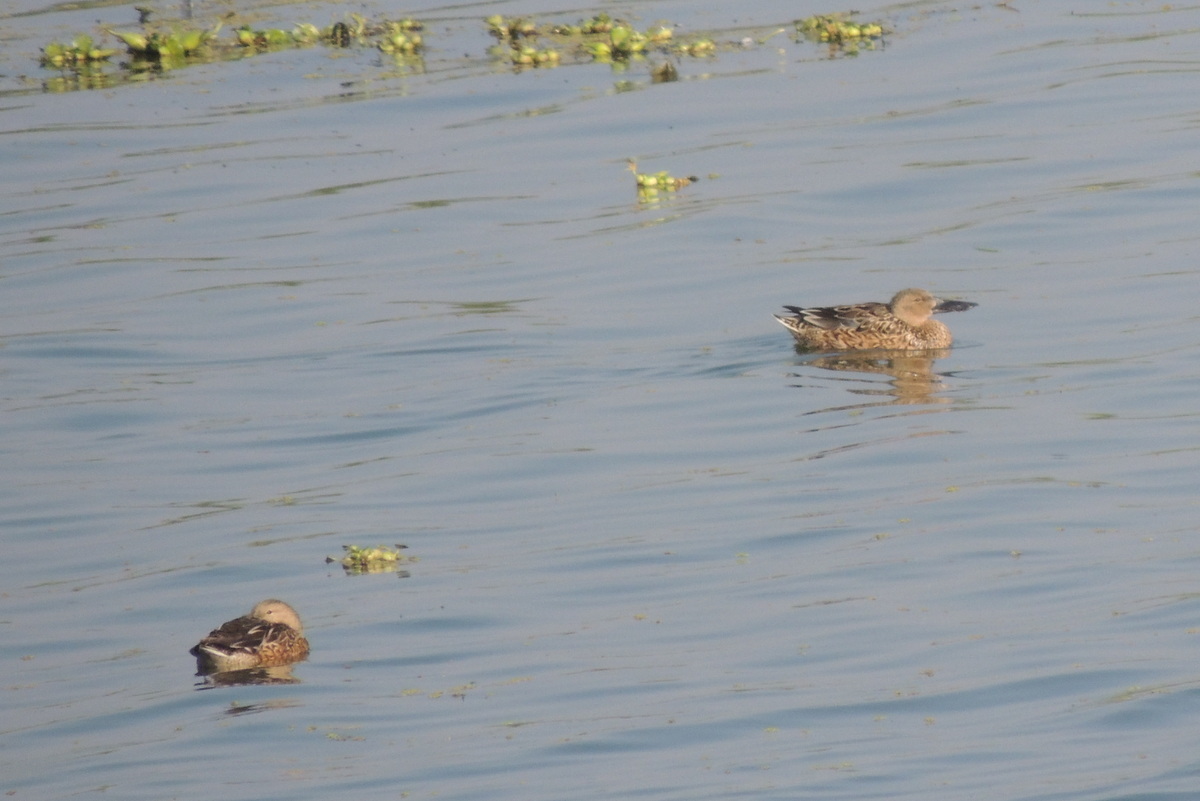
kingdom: Animalia
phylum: Chordata
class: Aves
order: Anseriformes
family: Anatidae
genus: Spatula
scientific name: Spatula clypeata
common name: Northern shoveler
